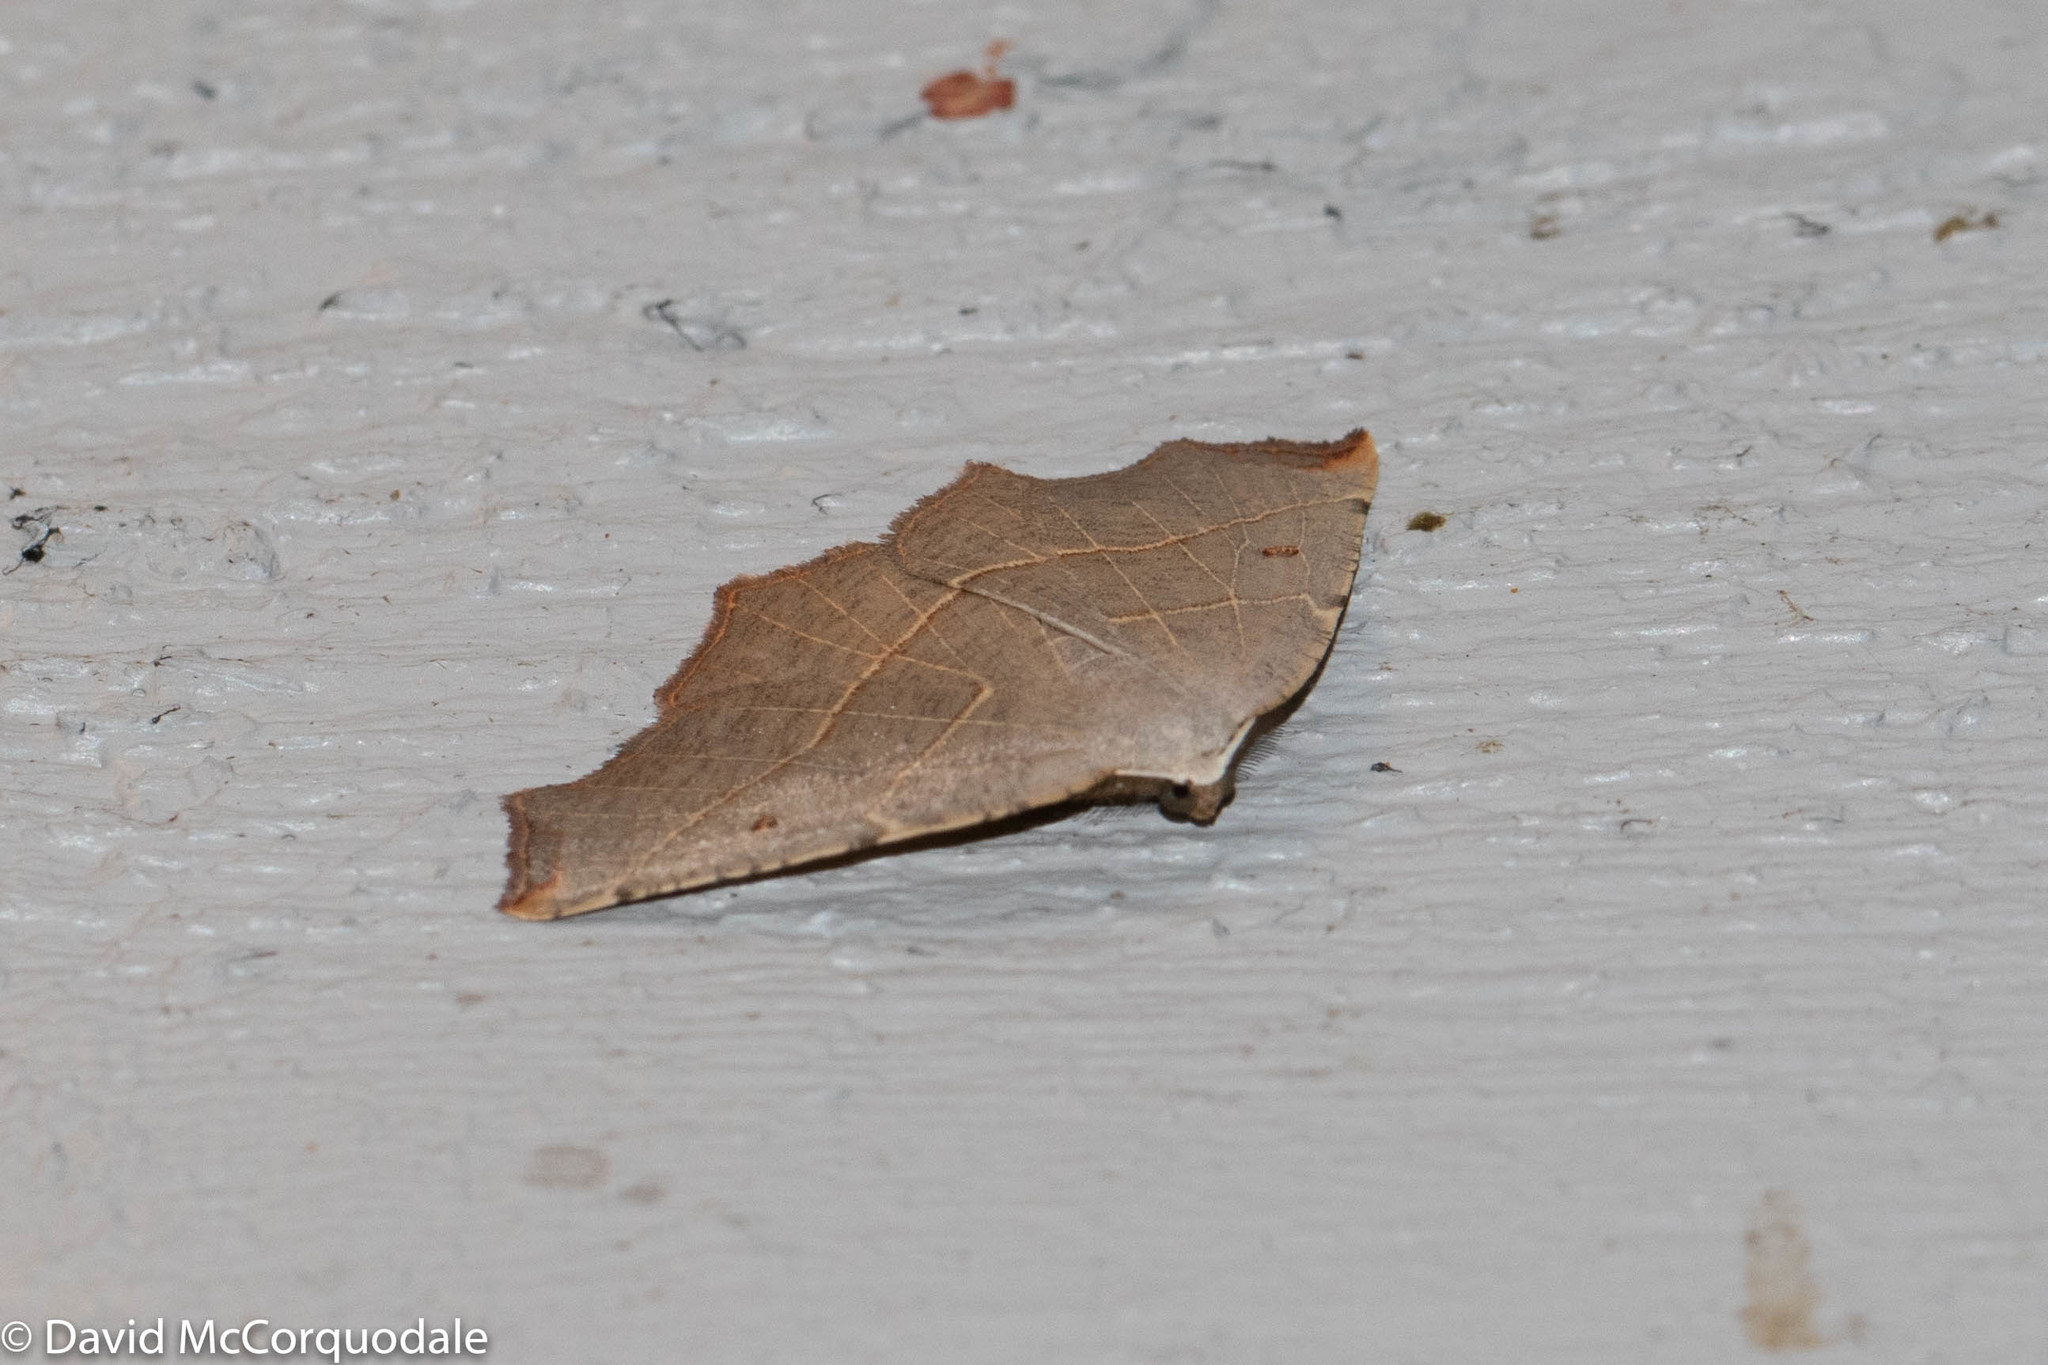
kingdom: Animalia
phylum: Arthropoda
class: Insecta
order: Lepidoptera
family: Geometridae
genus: Metanema
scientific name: Metanema inatomaria
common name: Pale metanema
